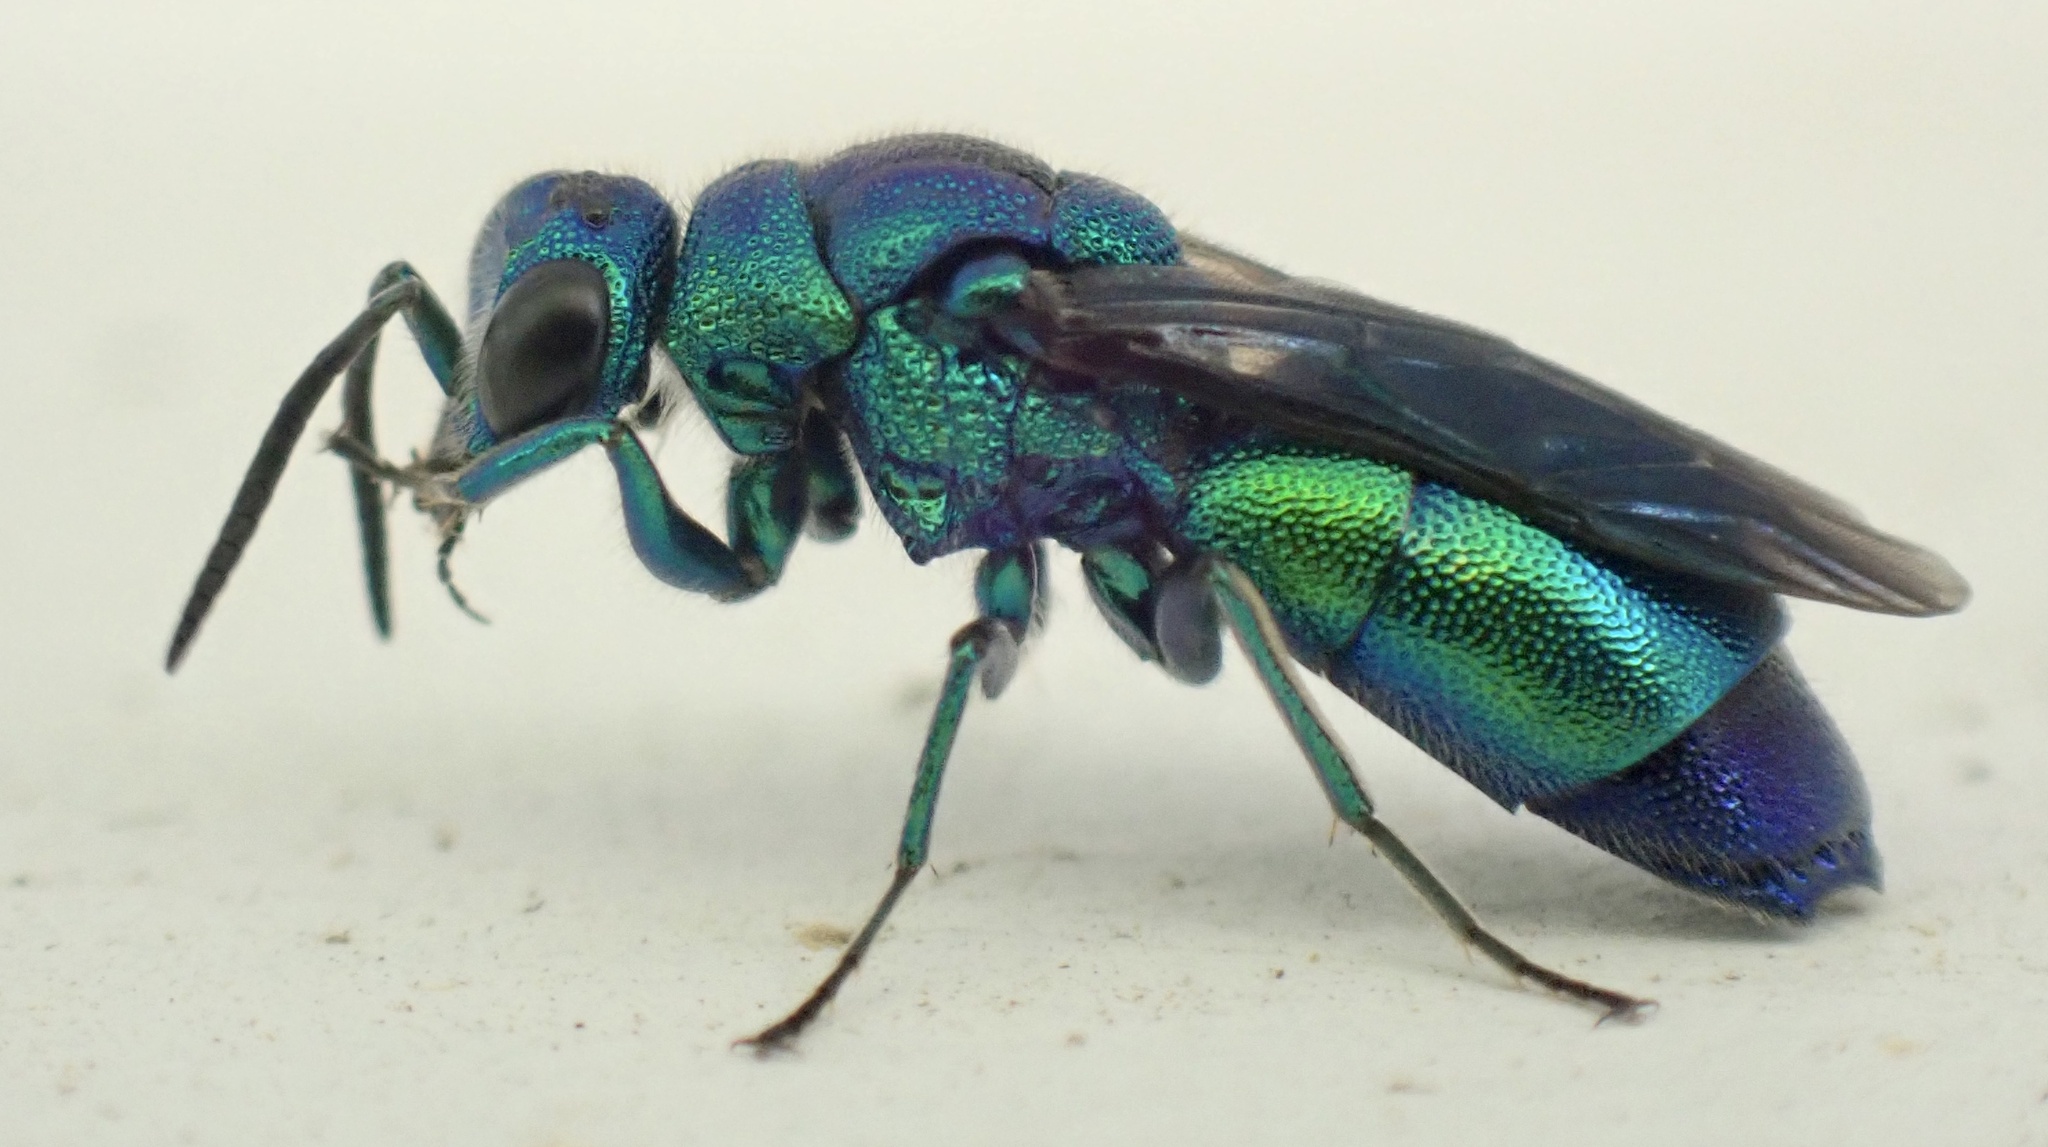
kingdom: Animalia
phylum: Arthropoda
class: Insecta
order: Hymenoptera
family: Chrysididae
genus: Chrysis
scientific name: Chrysis angolensis
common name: Cuckoo wasp
